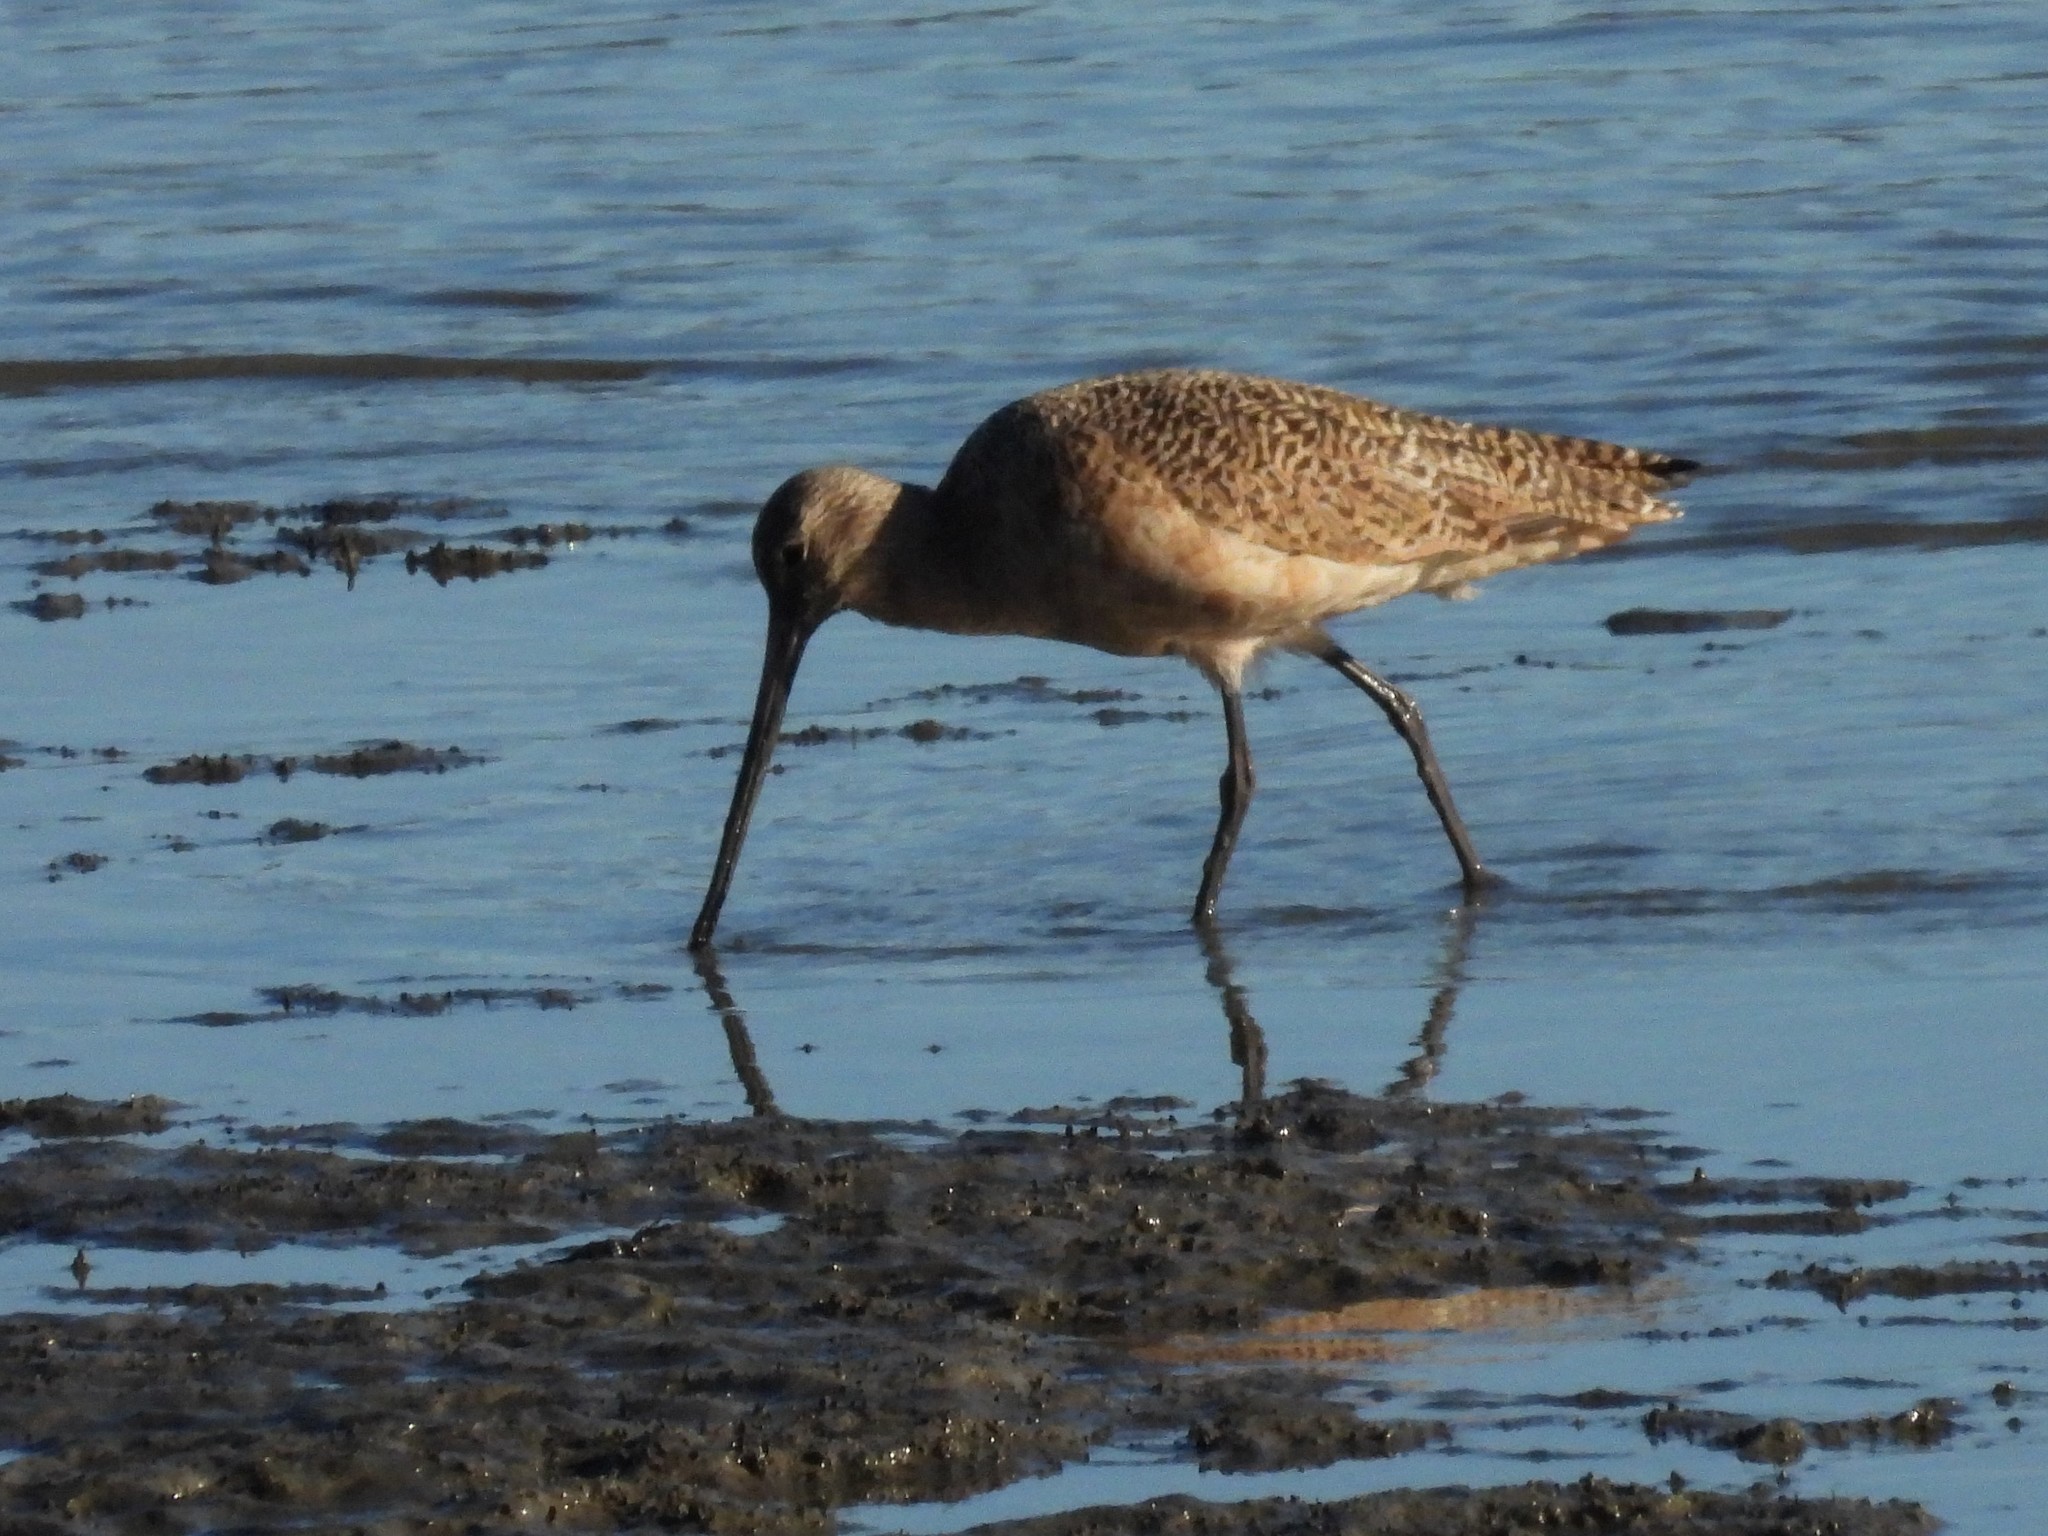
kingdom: Animalia
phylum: Chordata
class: Aves
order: Charadriiformes
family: Scolopacidae
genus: Limosa
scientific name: Limosa fedoa
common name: Marbled godwit
